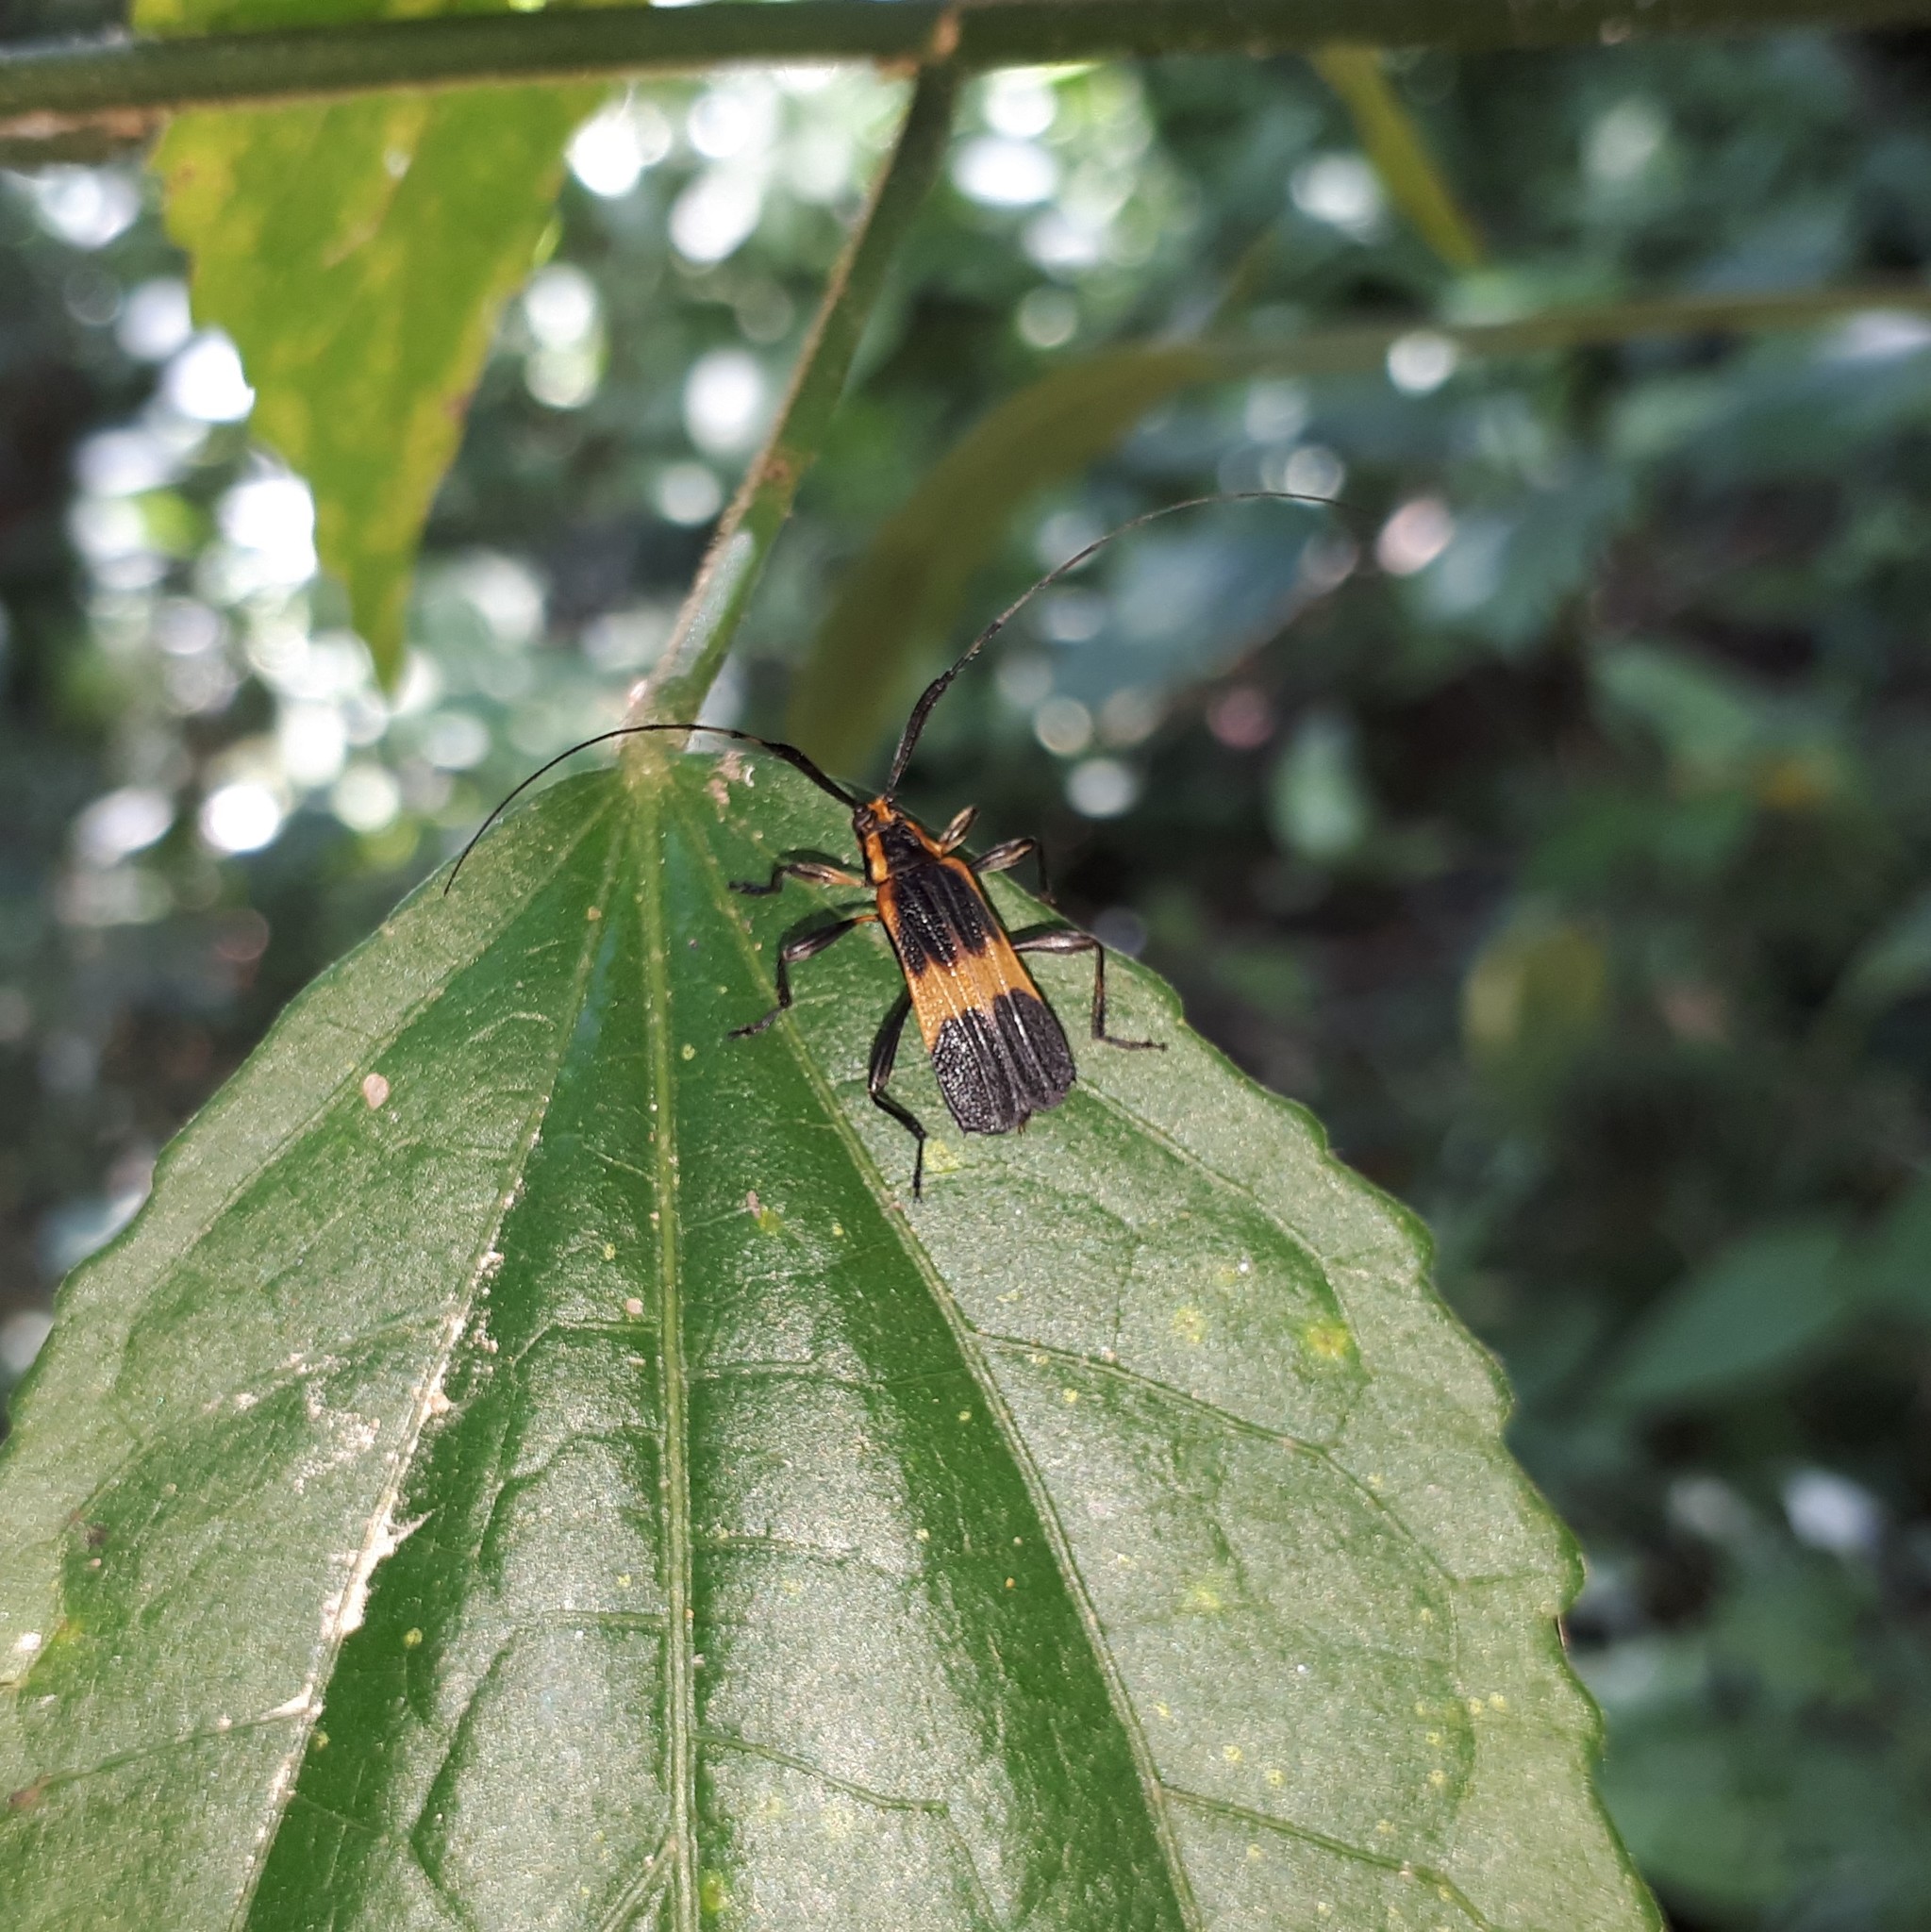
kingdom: Animalia
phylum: Arthropoda
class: Insecta
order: Coleoptera
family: Cerambycidae
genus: Batesparna
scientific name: Batesparna
